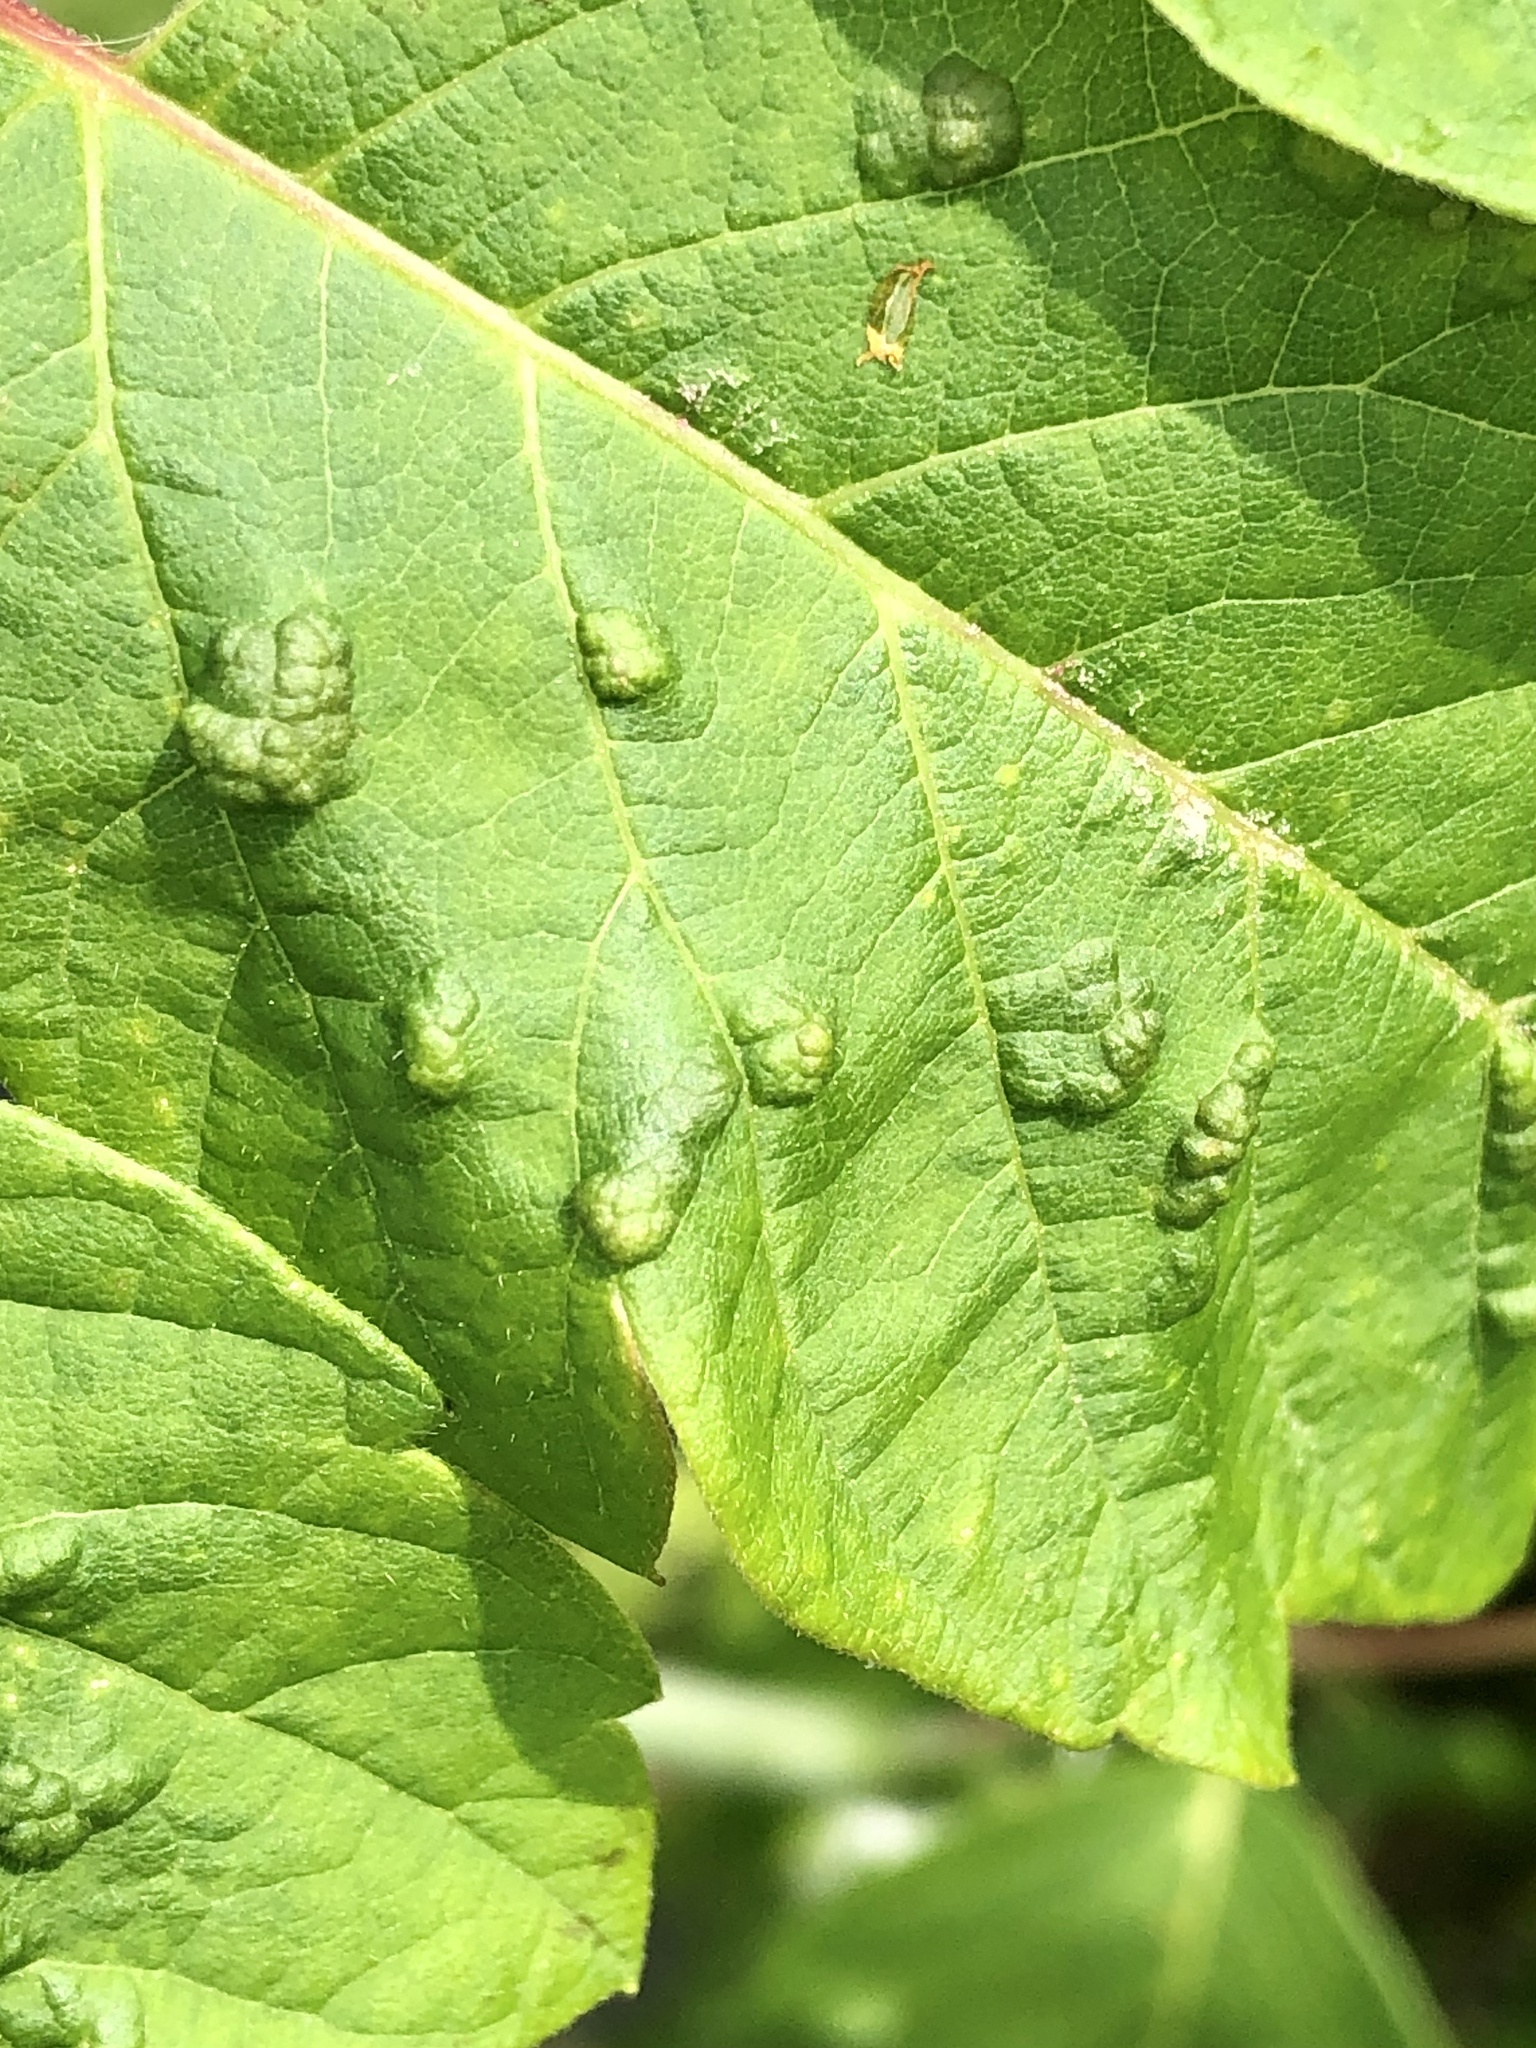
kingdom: Animalia
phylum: Arthropoda
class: Arachnida
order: Trombidiformes
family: Eriophyidae
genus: Aceria
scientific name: Aceria
